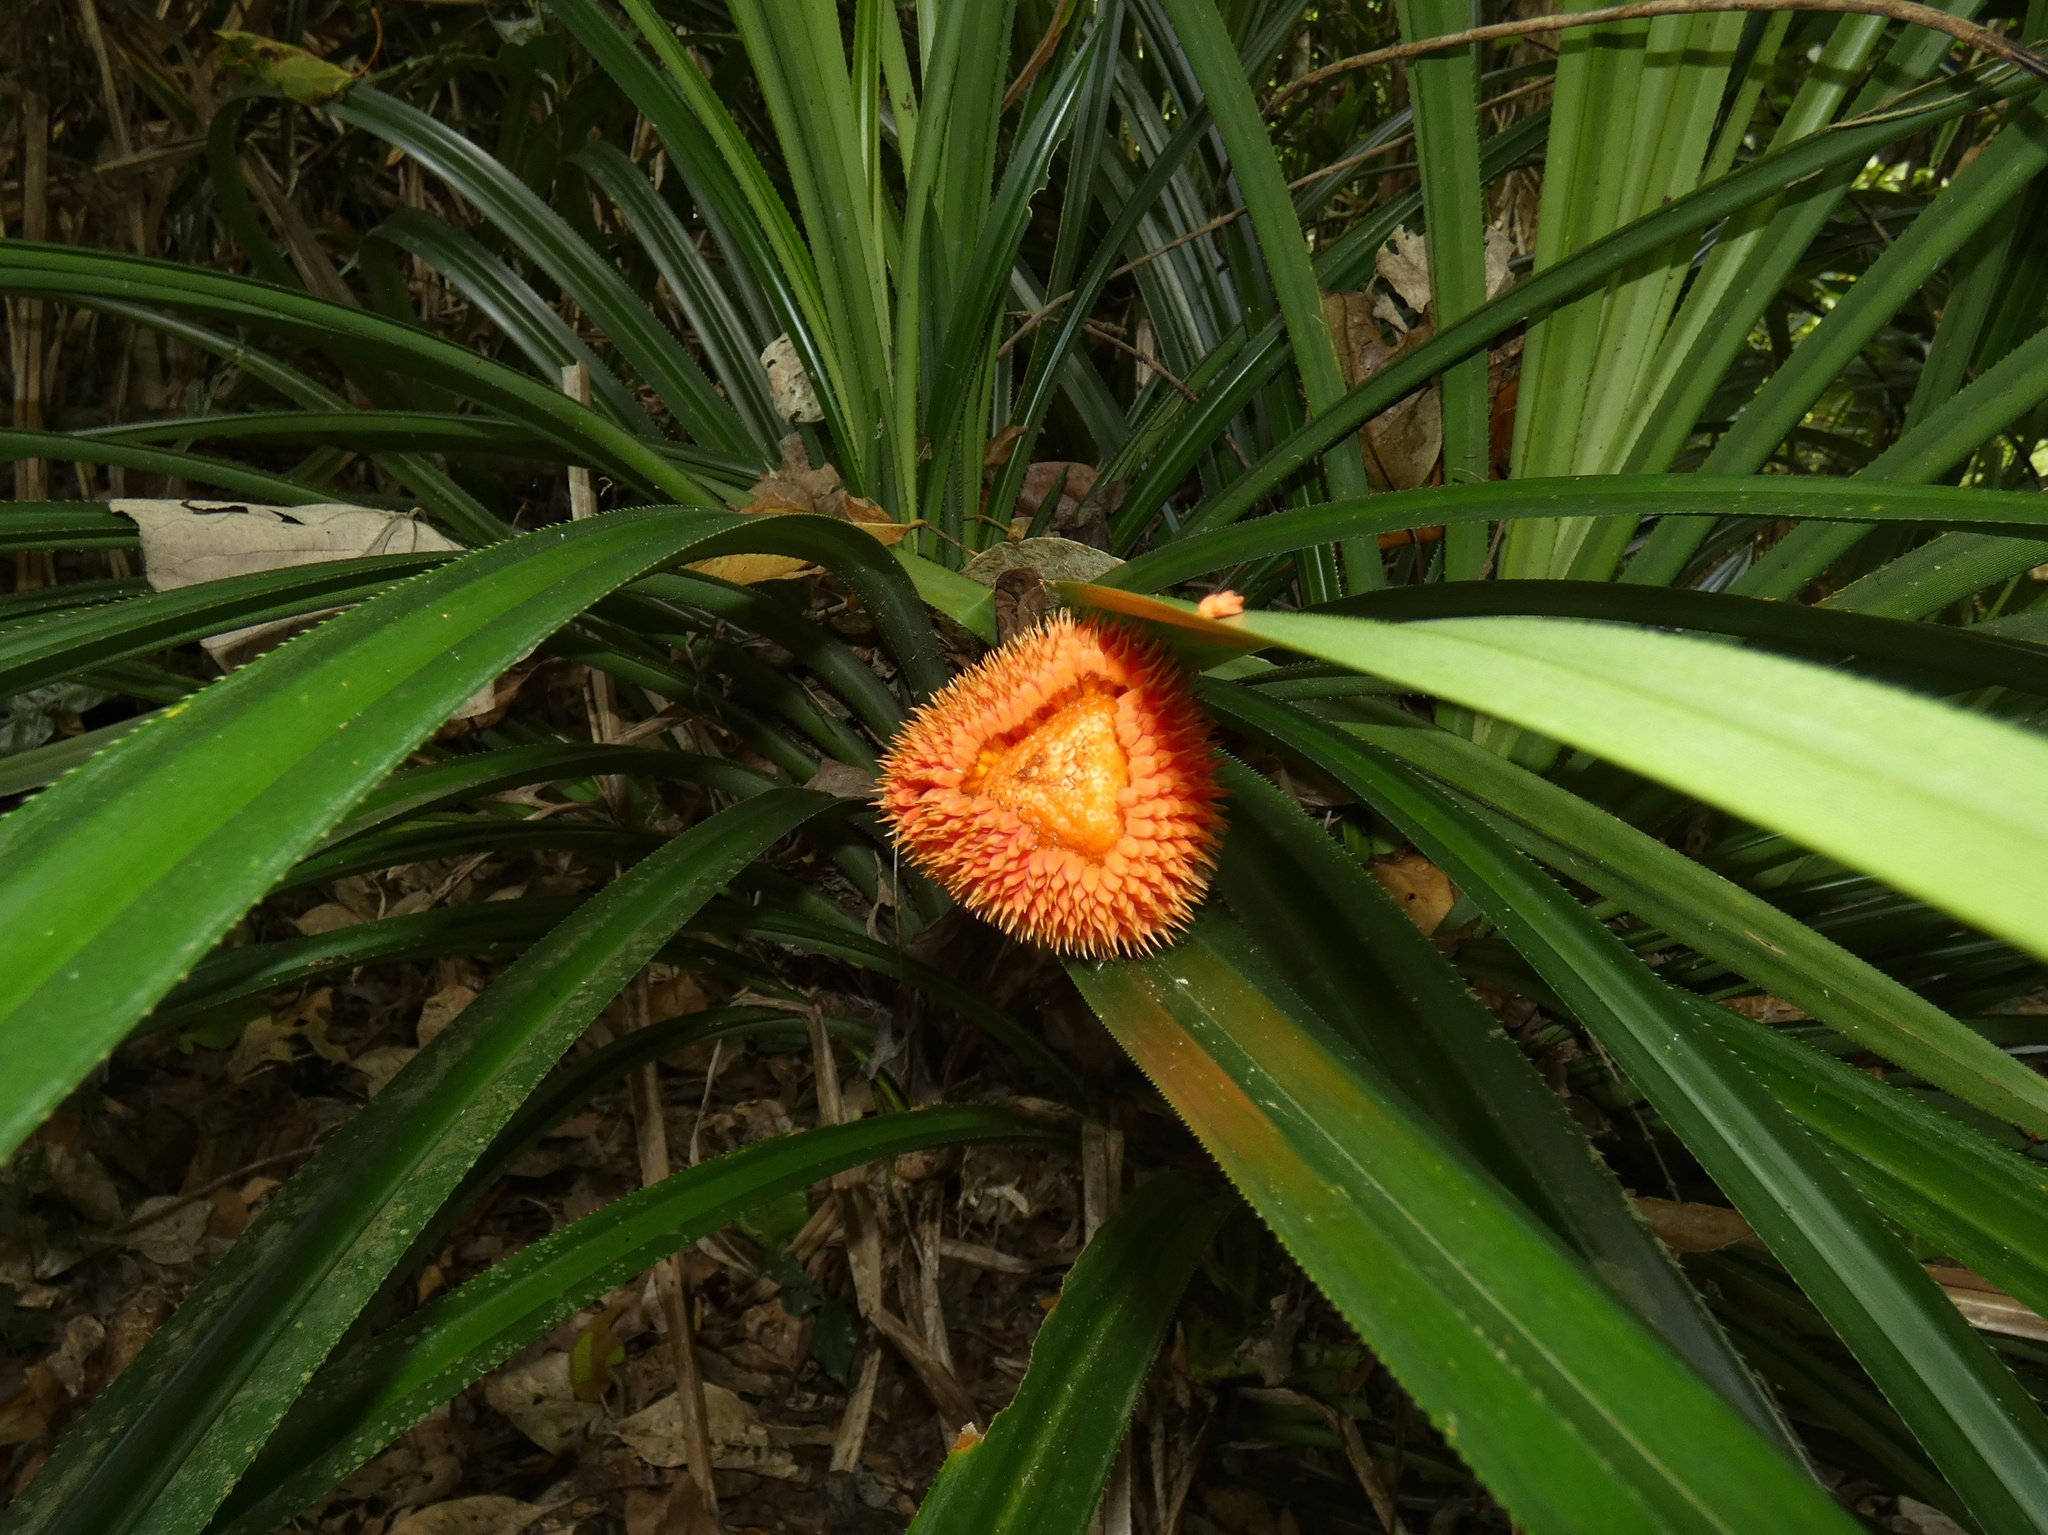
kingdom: Plantae
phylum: Tracheophyta
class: Liliopsida
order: Pandanales
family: Pandanaceae
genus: Benstonea
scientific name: Benstonea monticola
